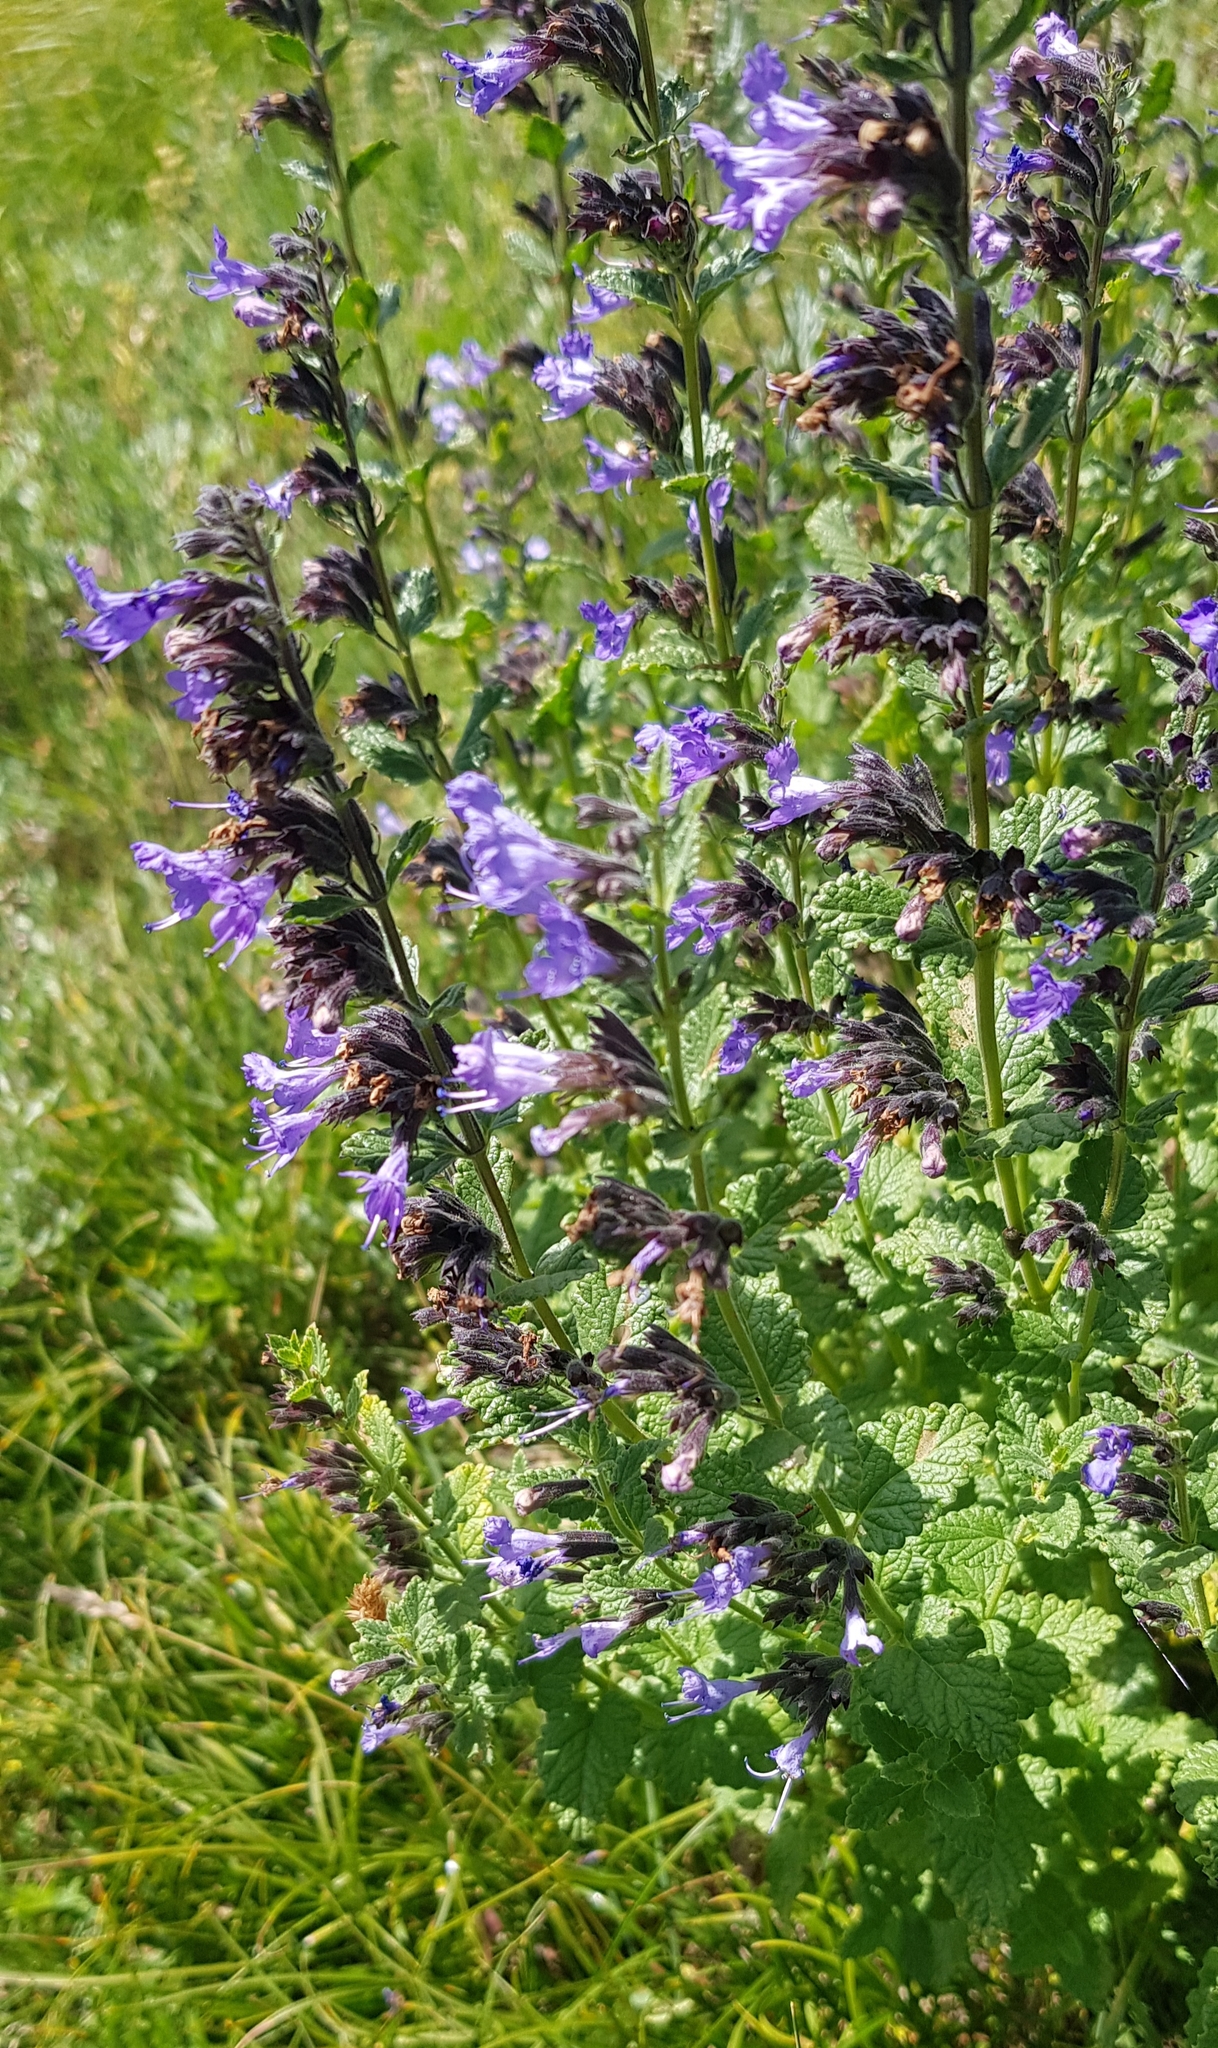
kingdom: Plantae
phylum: Tracheophyta
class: Magnoliopsida
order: Lamiales
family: Lamiaceae
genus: Nepeta
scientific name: Nepeta lophanthus
